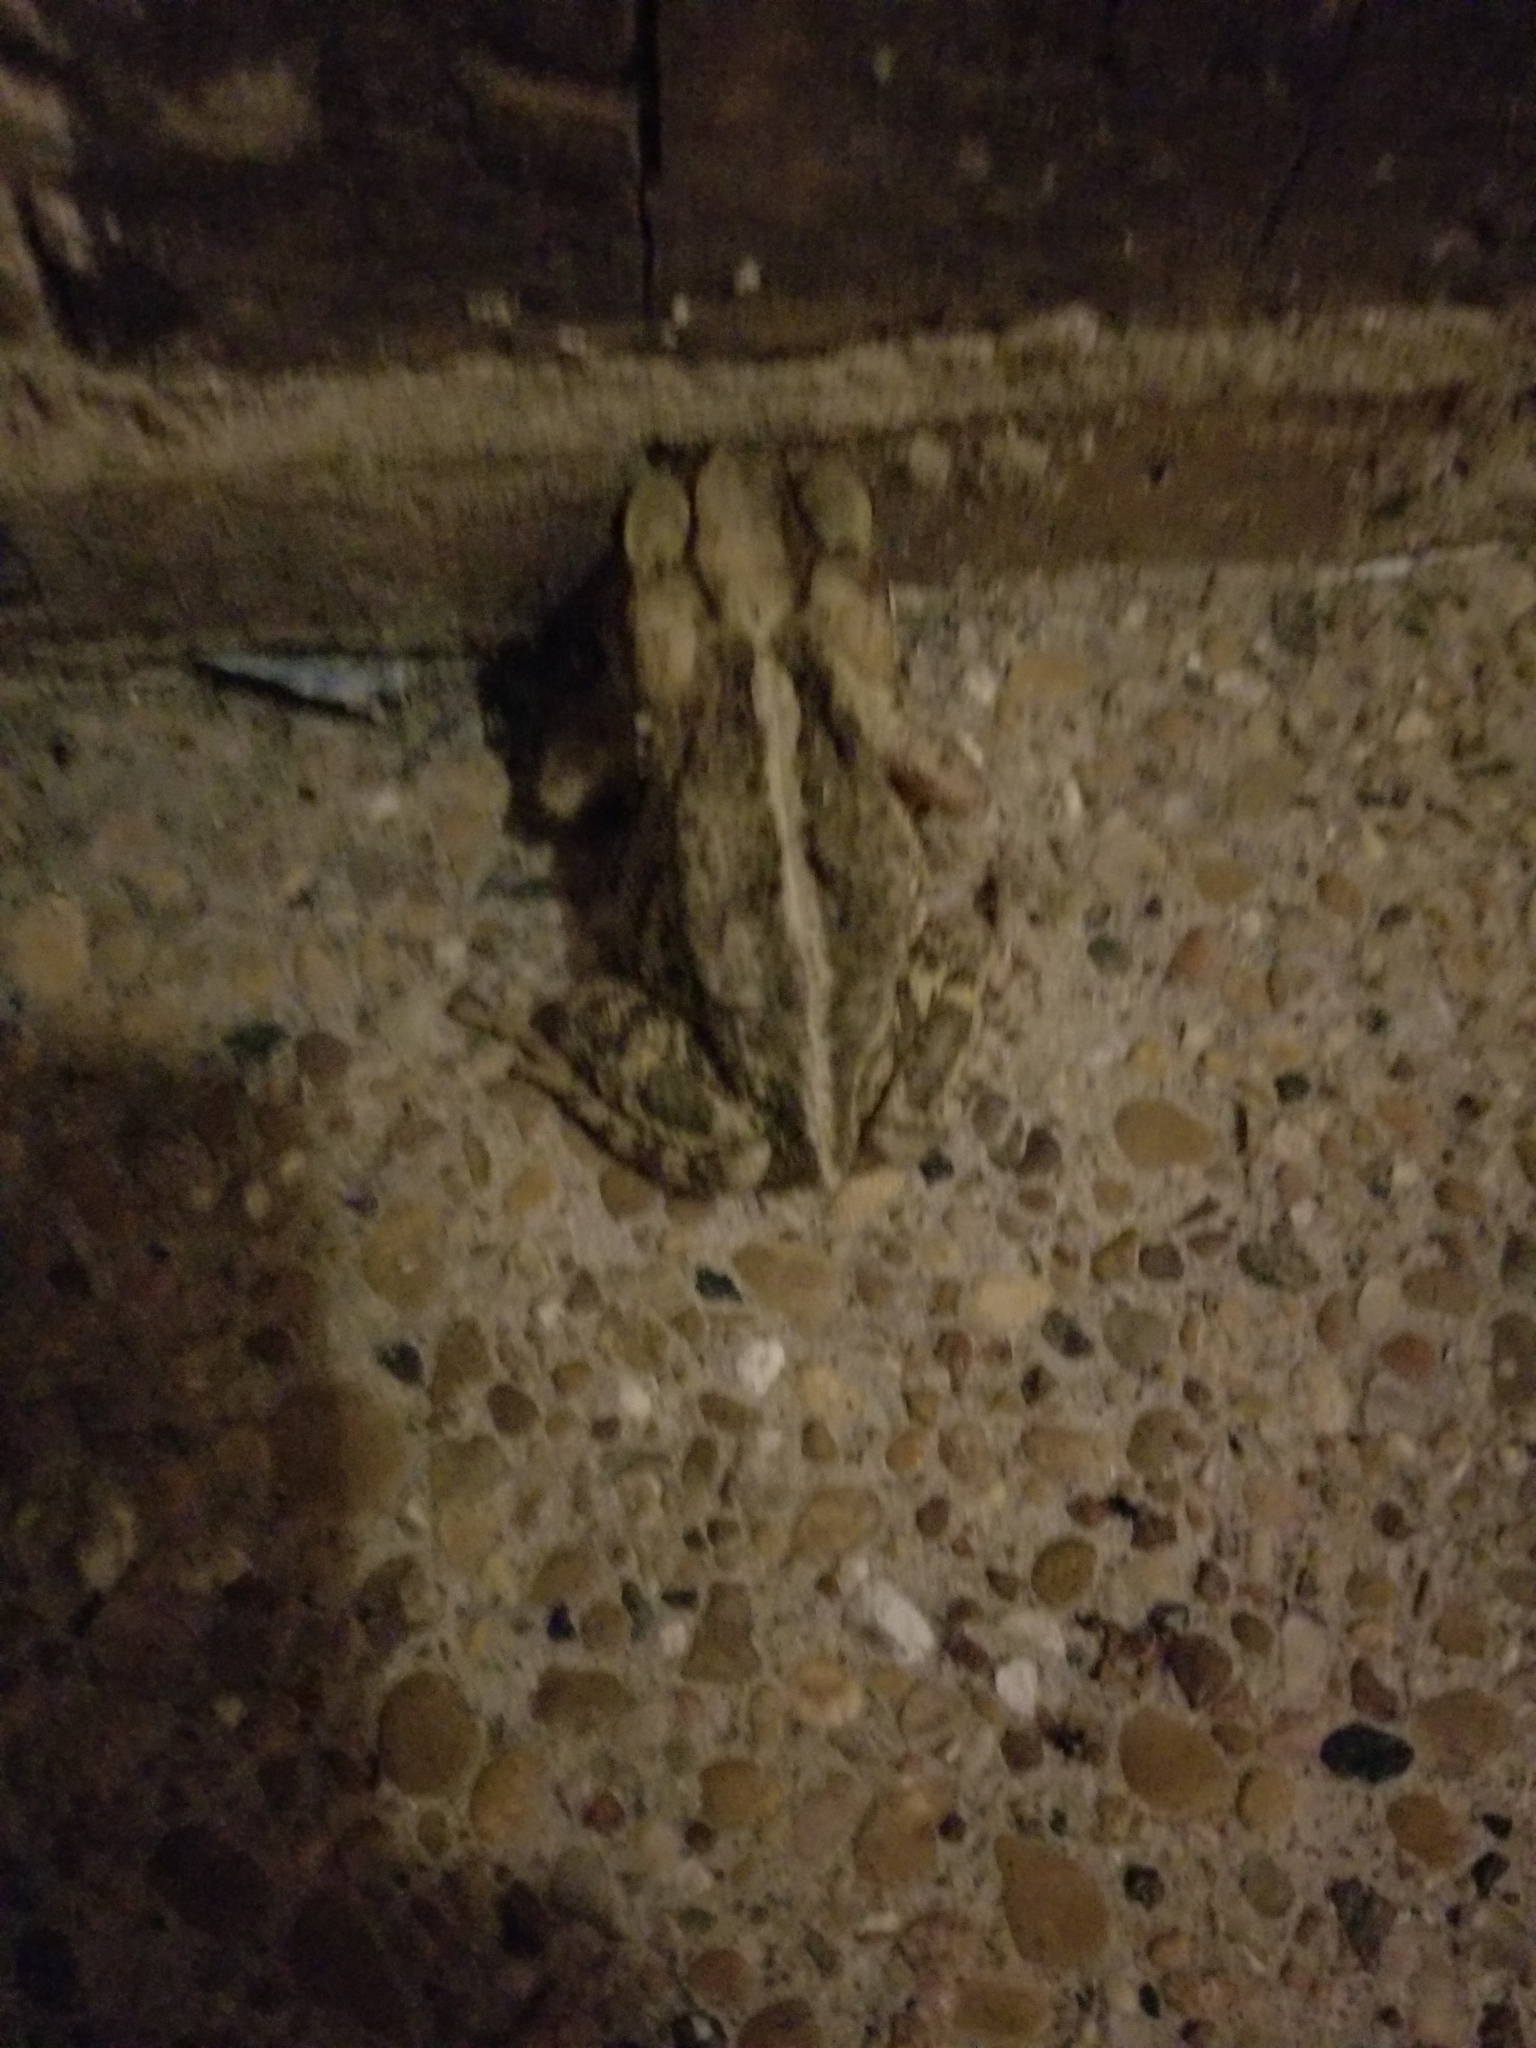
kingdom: Animalia
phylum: Chordata
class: Amphibia
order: Anura
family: Bufonidae
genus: Incilius
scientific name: Incilius nebulifer
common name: Gulf coast toad
